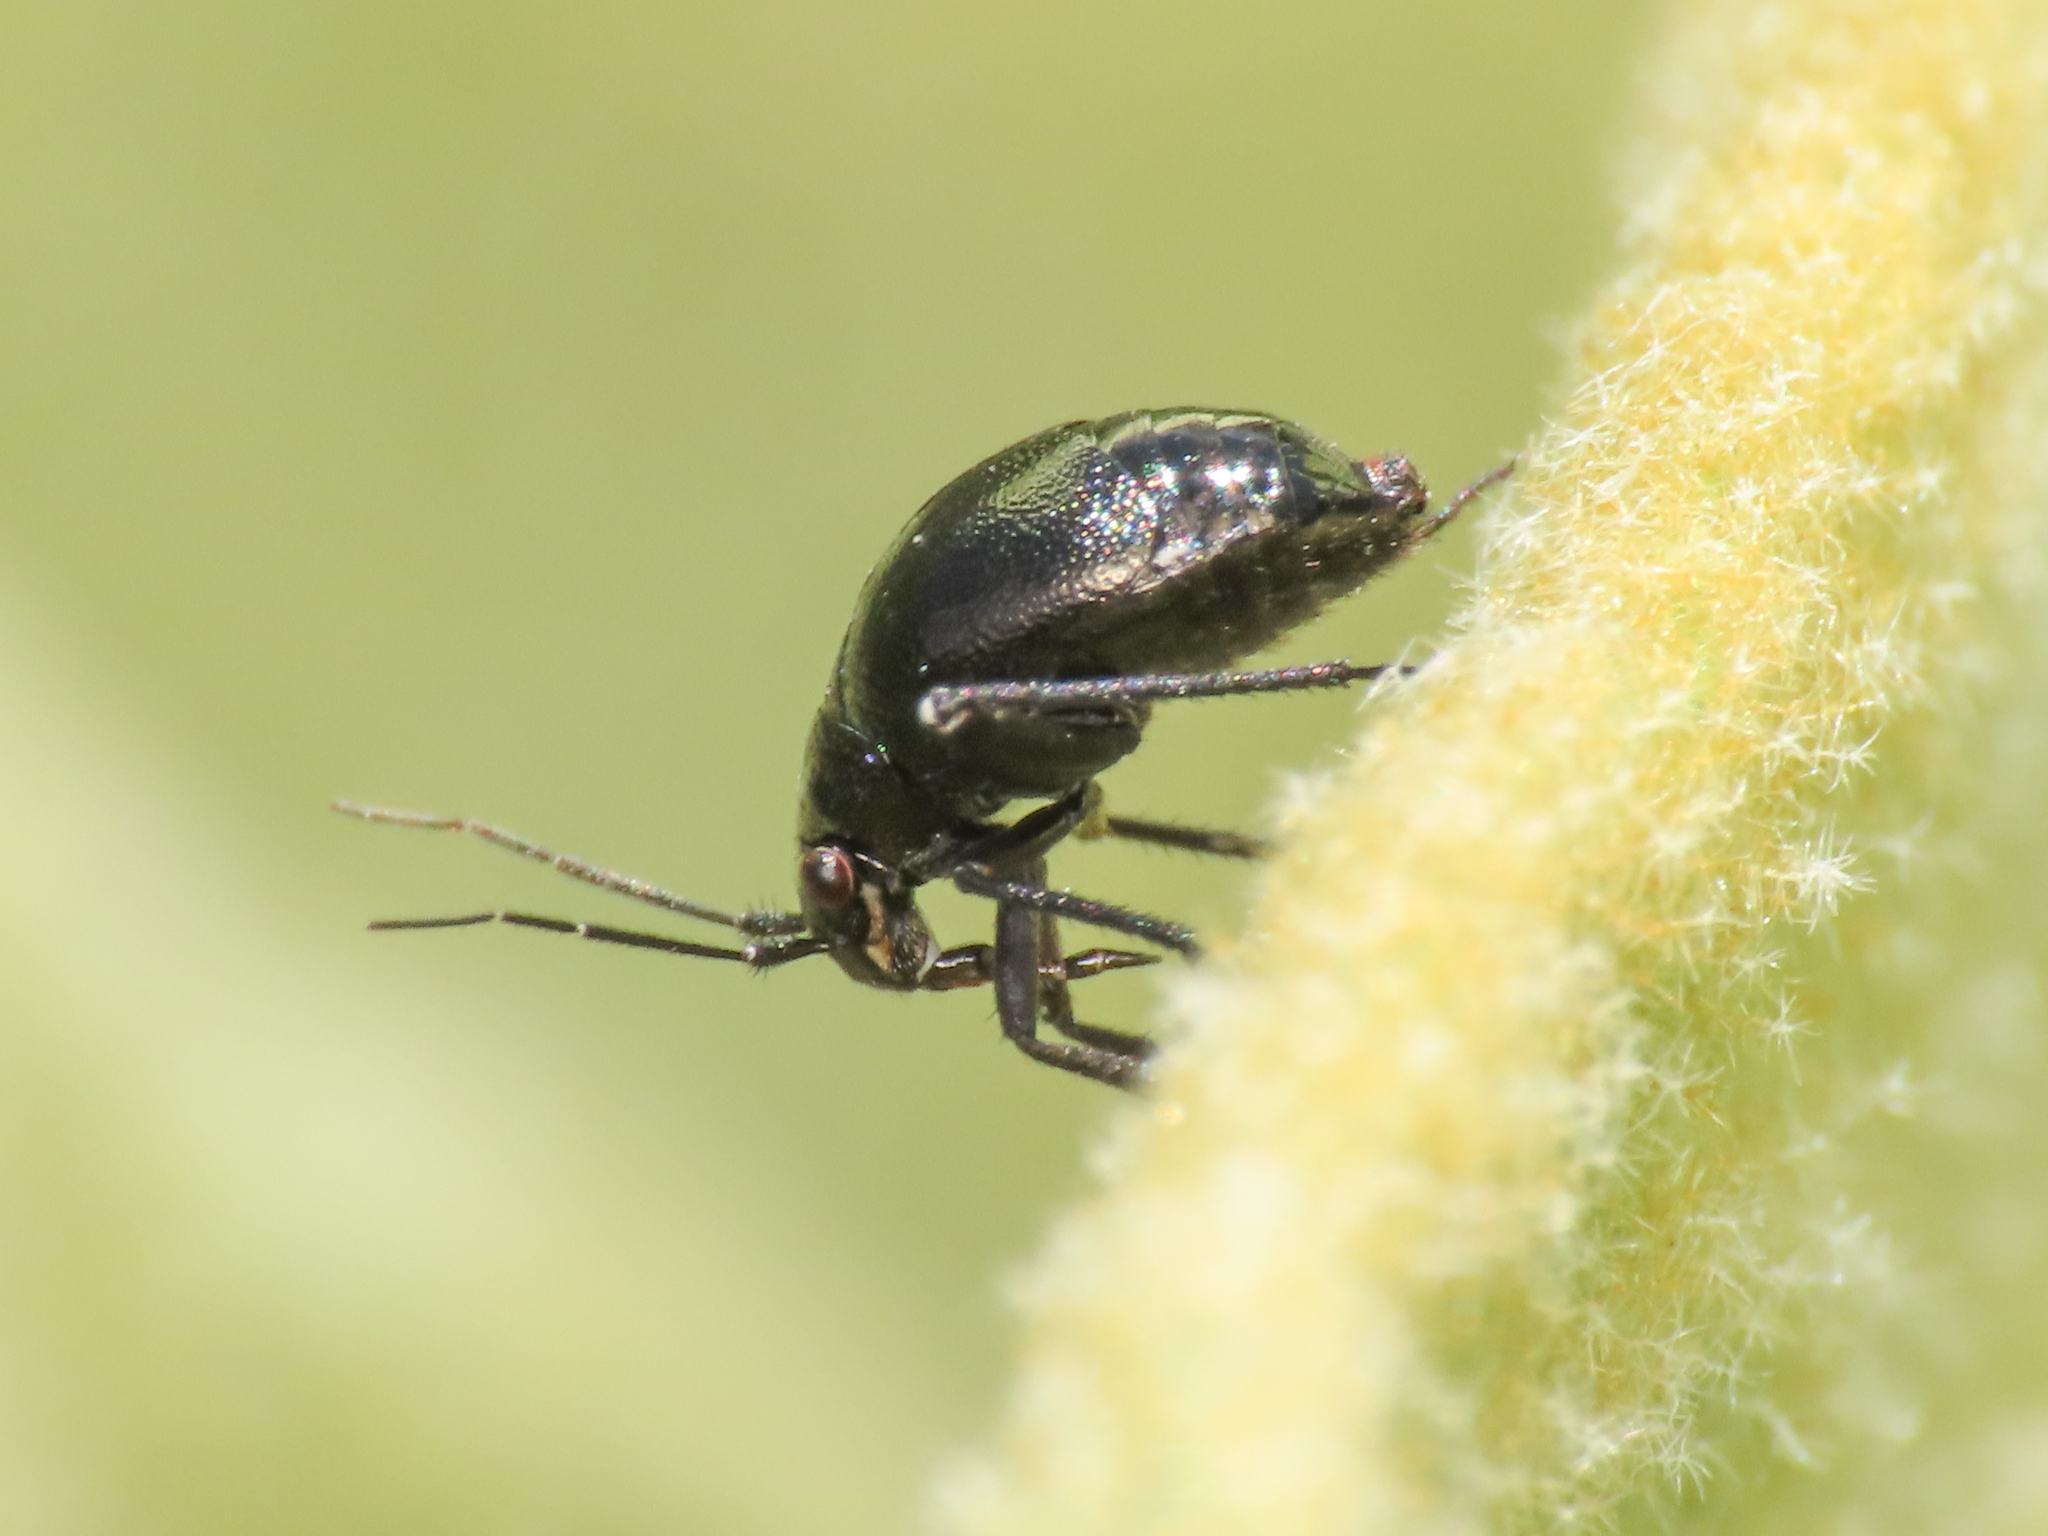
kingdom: Animalia
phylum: Arthropoda
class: Insecta
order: Hemiptera
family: Miridae
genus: Euryopicoris
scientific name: Euryopicoris nitidus
